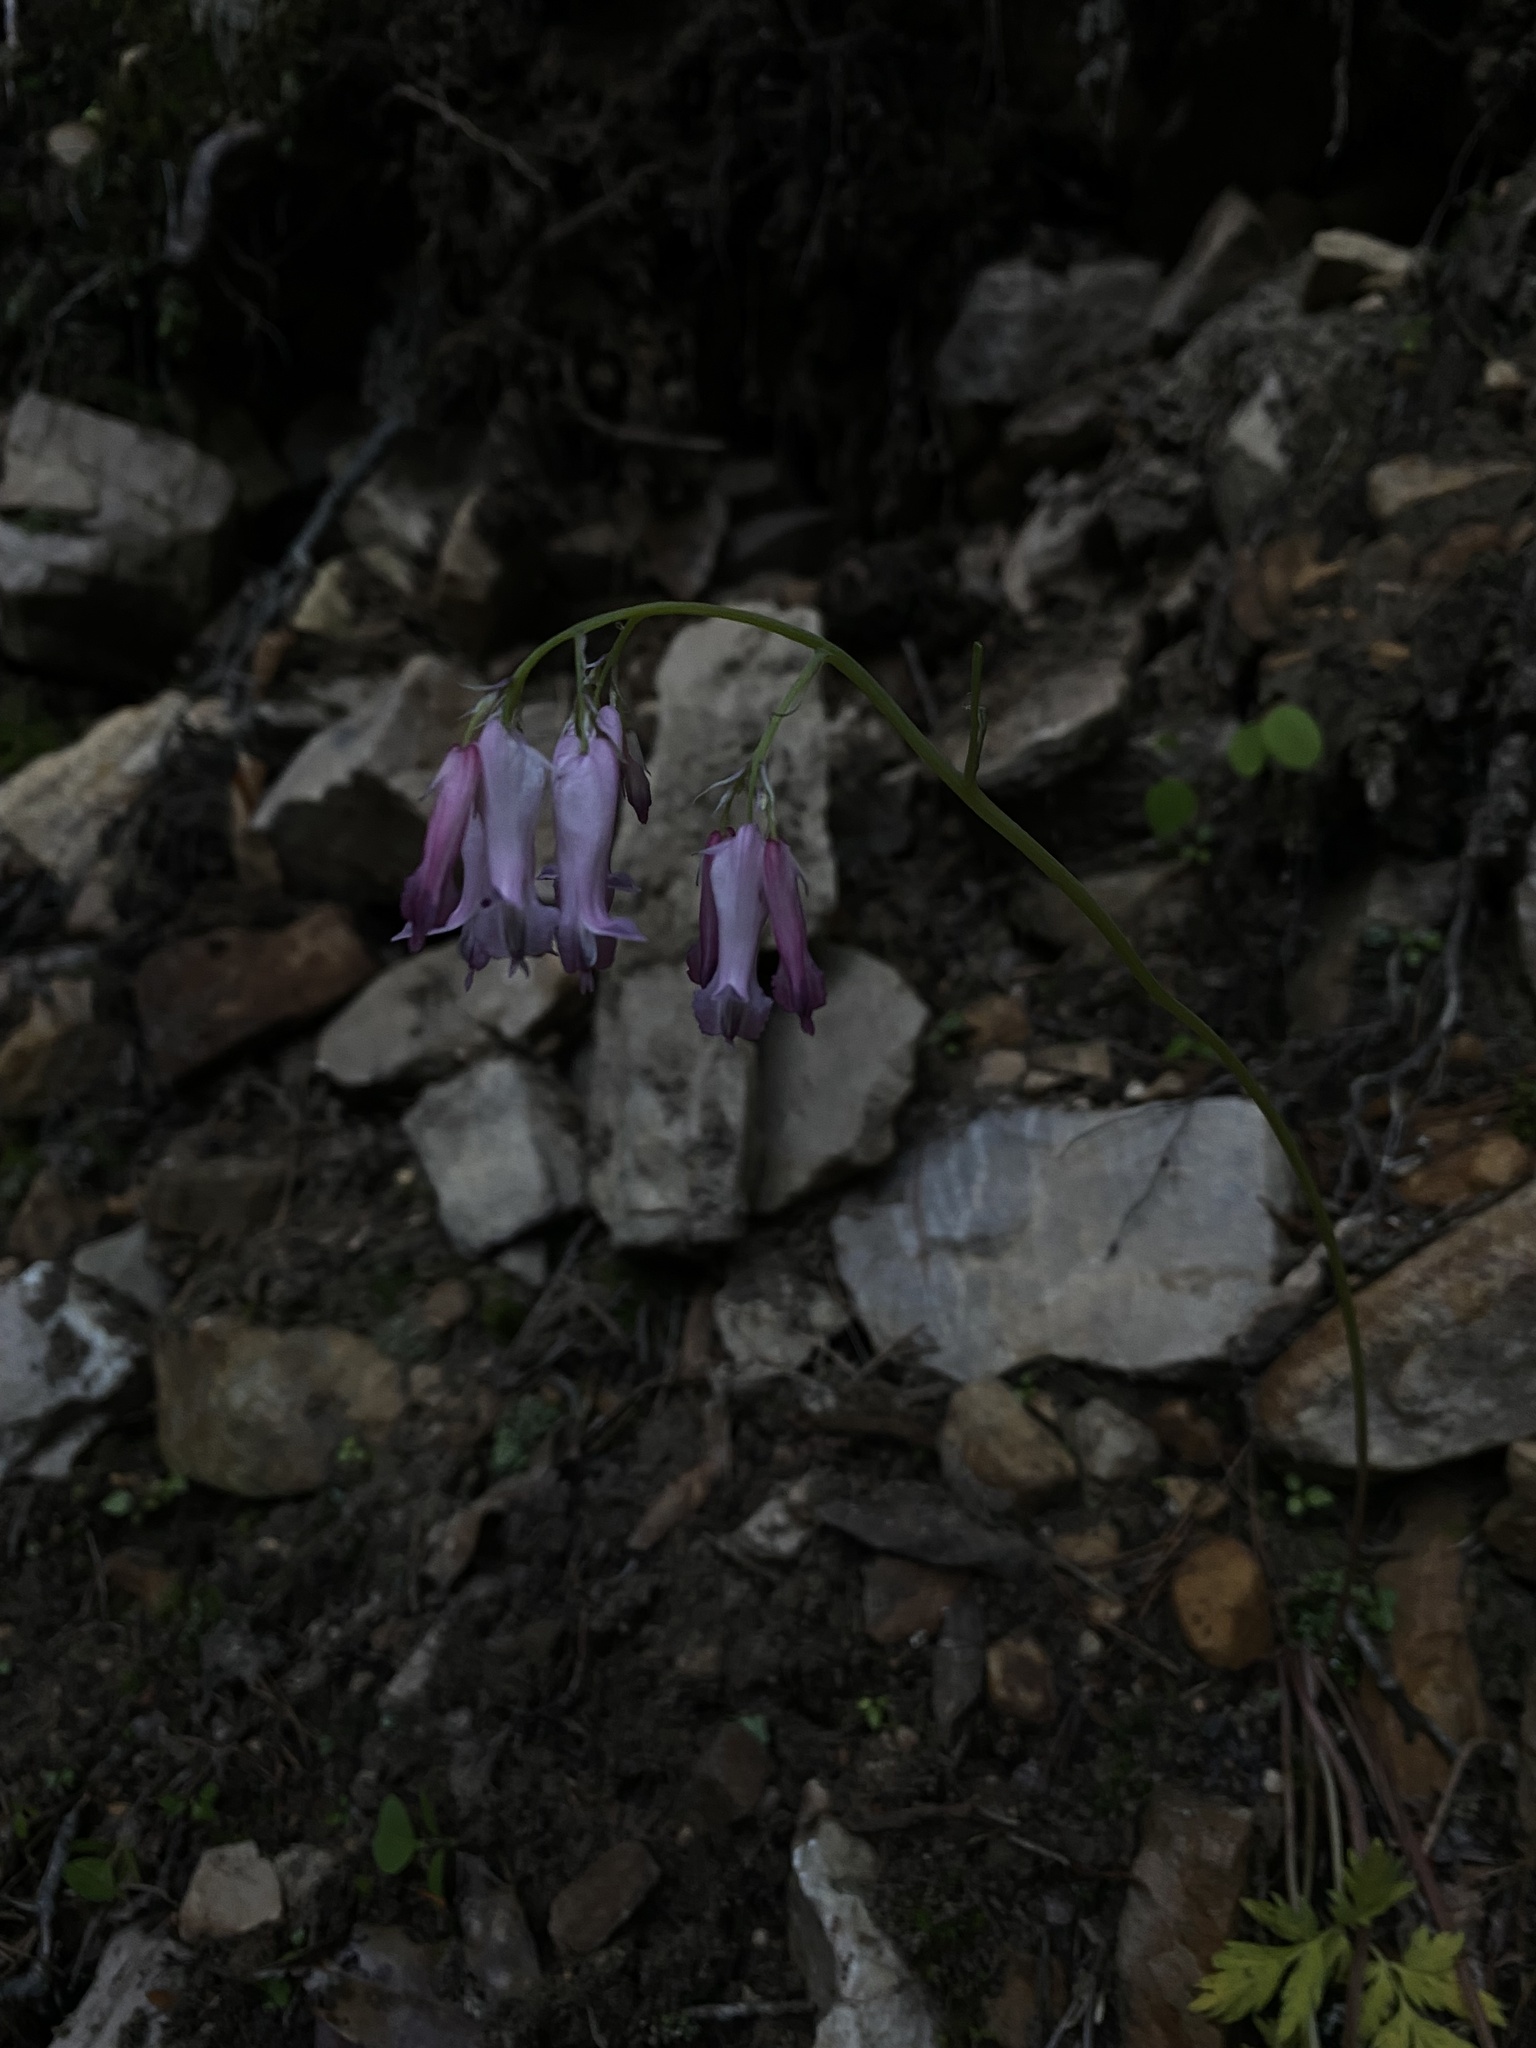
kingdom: Plantae
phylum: Tracheophyta
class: Magnoliopsida
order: Ranunculales
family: Papaveraceae
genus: Dicentra
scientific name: Dicentra eximia
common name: Turkey-corn
